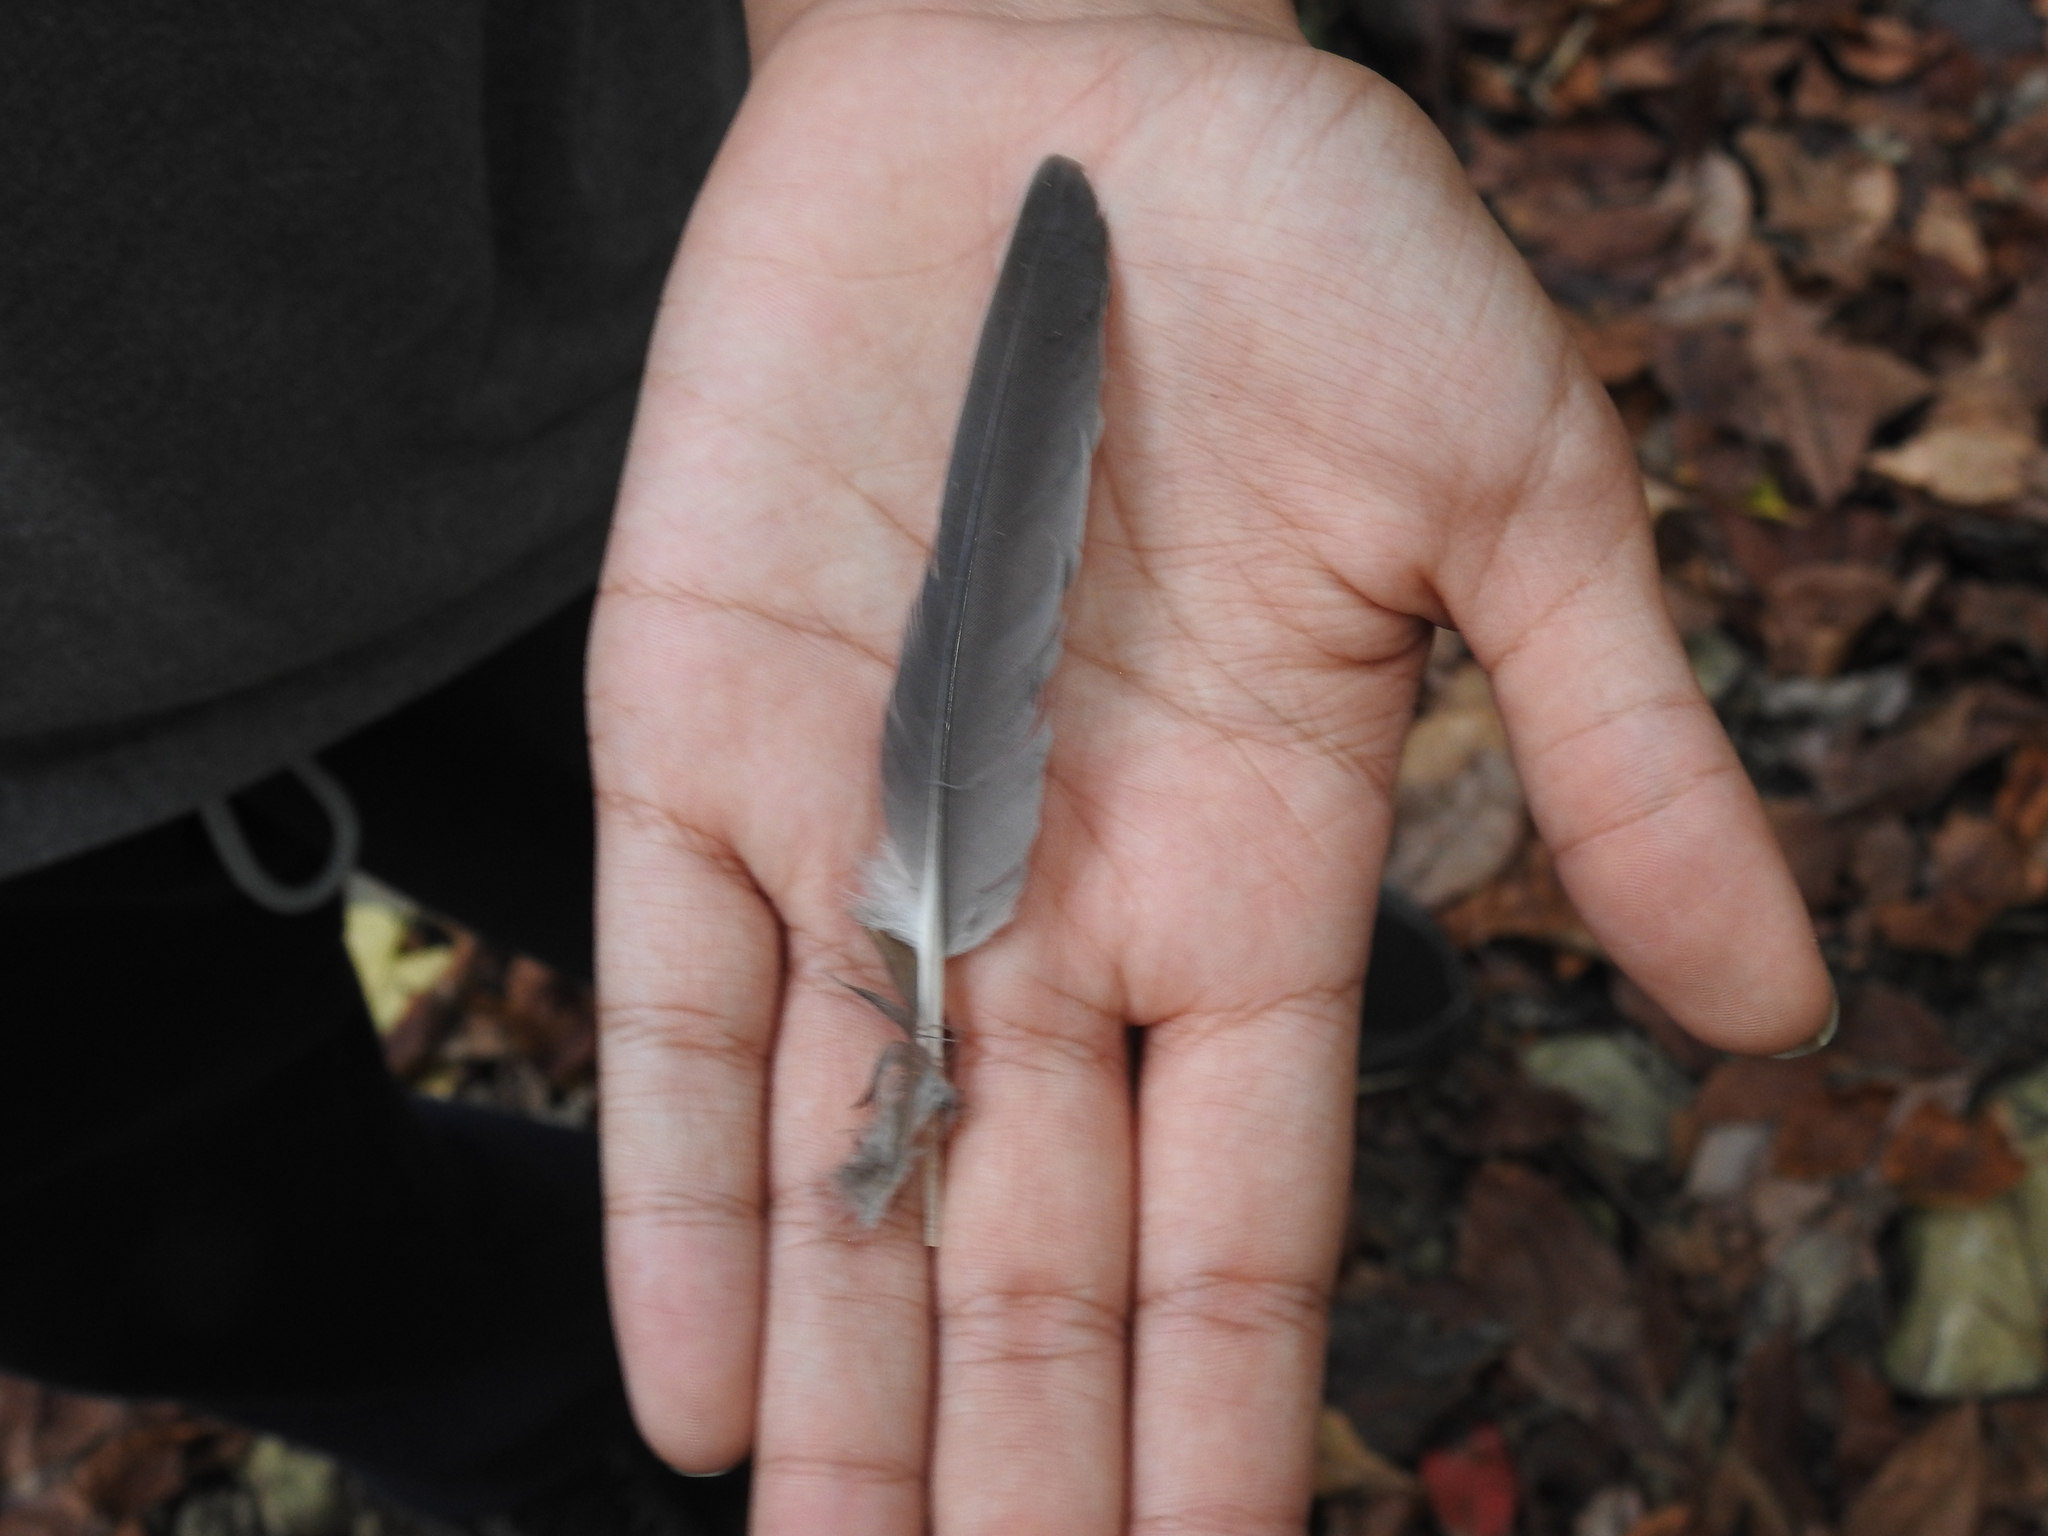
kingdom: Animalia
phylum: Chordata
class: Aves
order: Columbiformes
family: Columbidae
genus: Zenaida
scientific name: Zenaida macroura
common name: Mourning dove
